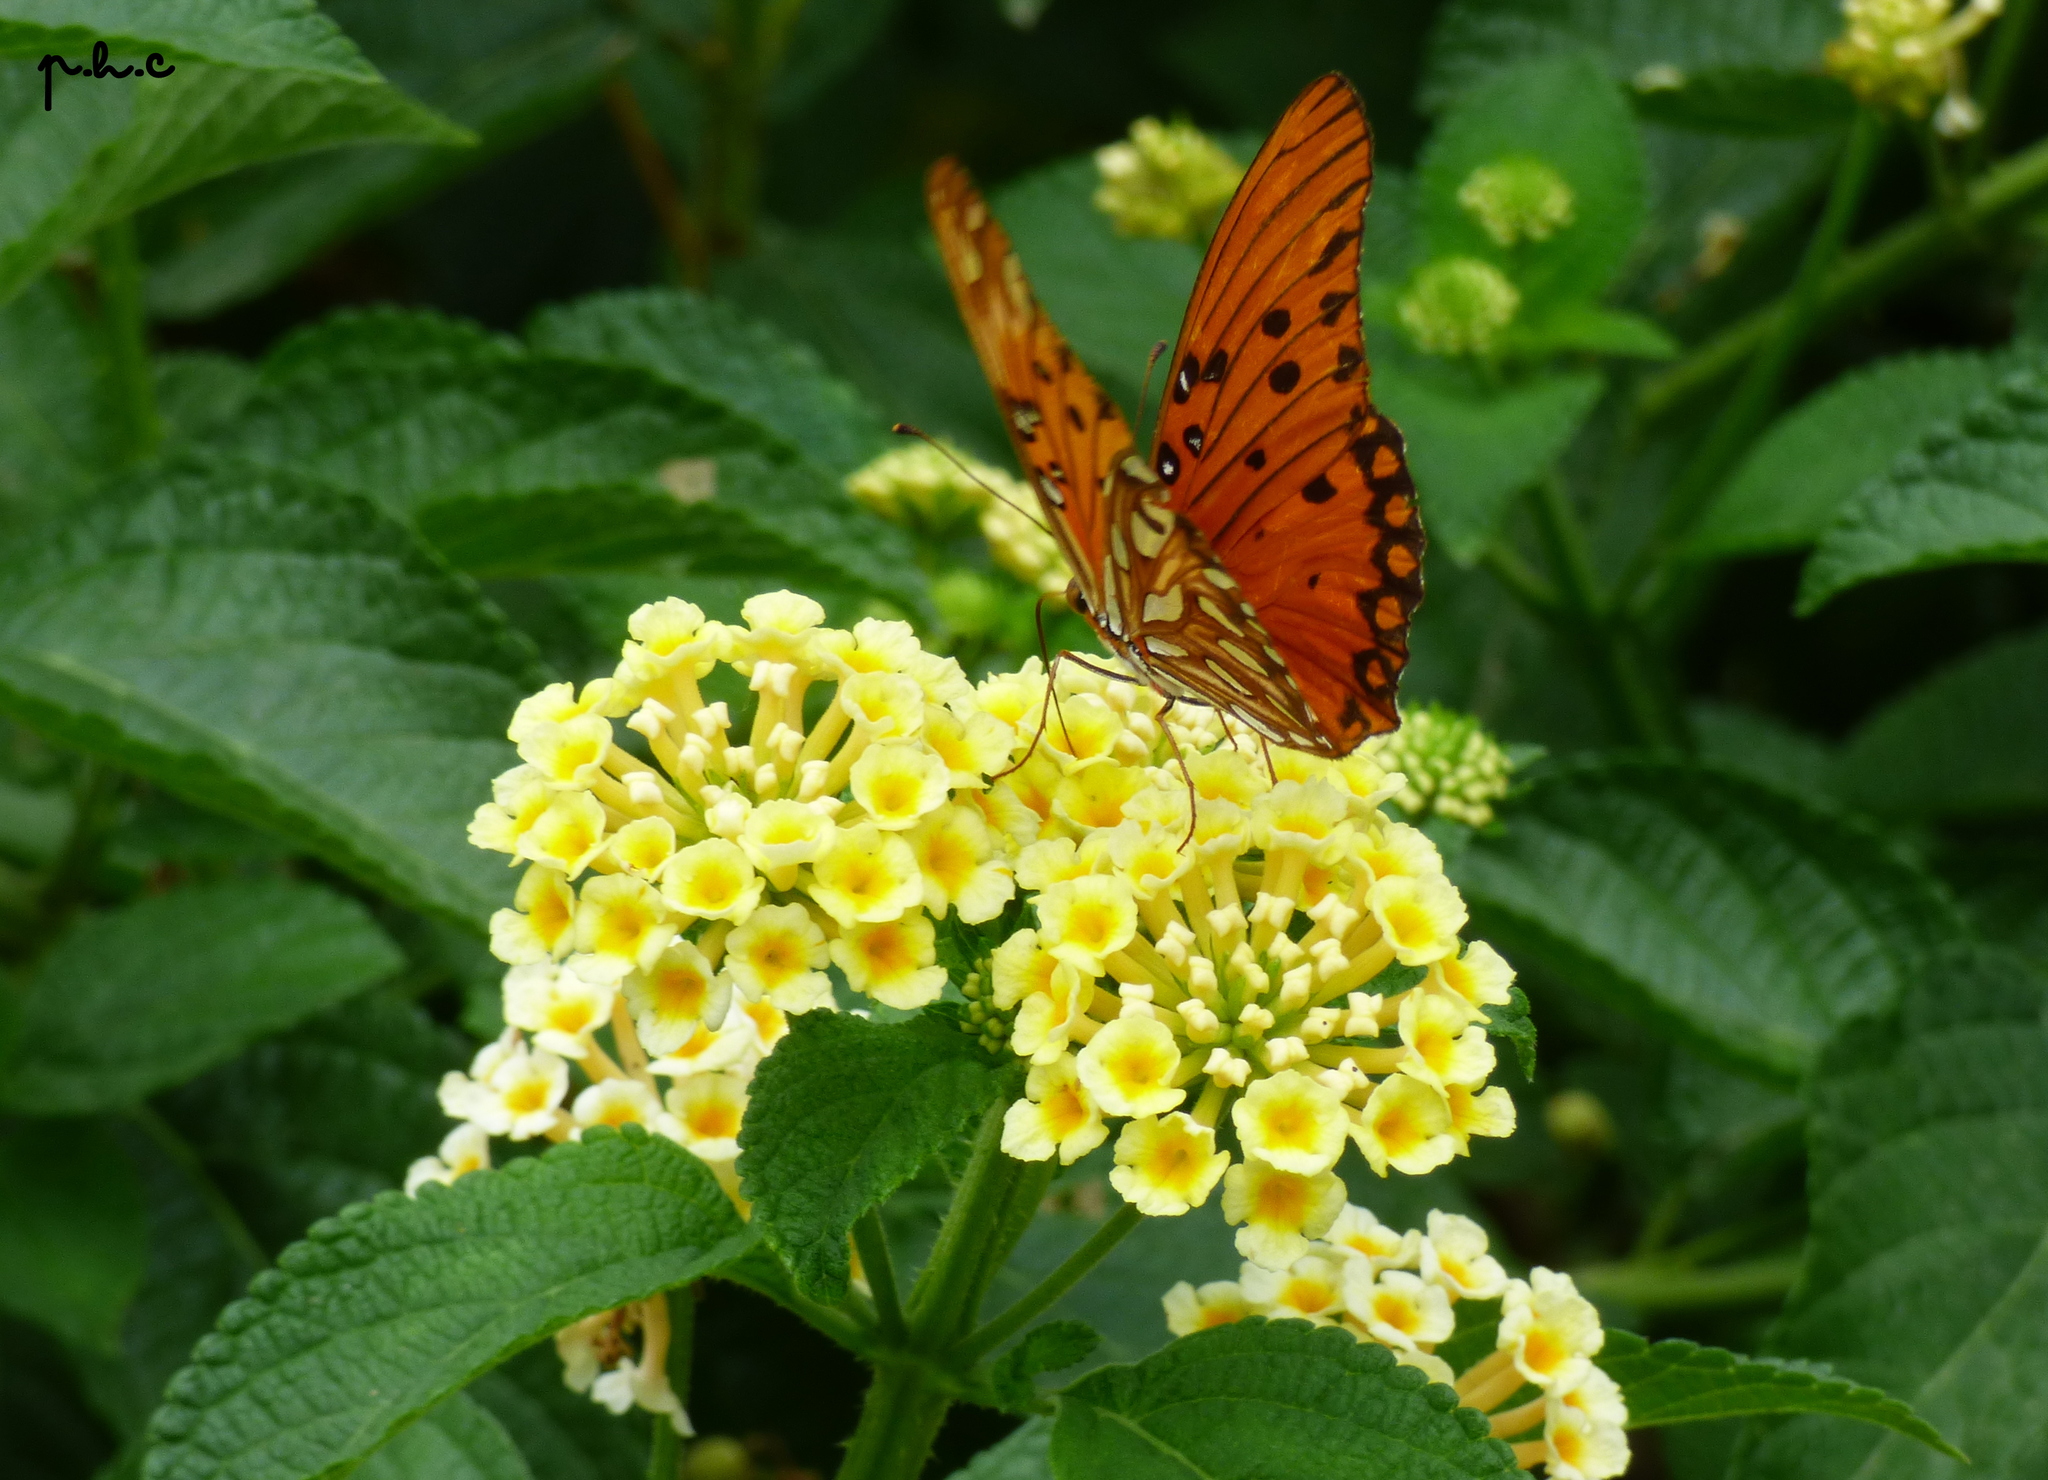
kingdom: Animalia
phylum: Arthropoda
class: Insecta
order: Lepidoptera
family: Nymphalidae
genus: Dione
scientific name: Dione vanillae
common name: Gulf fritillary
